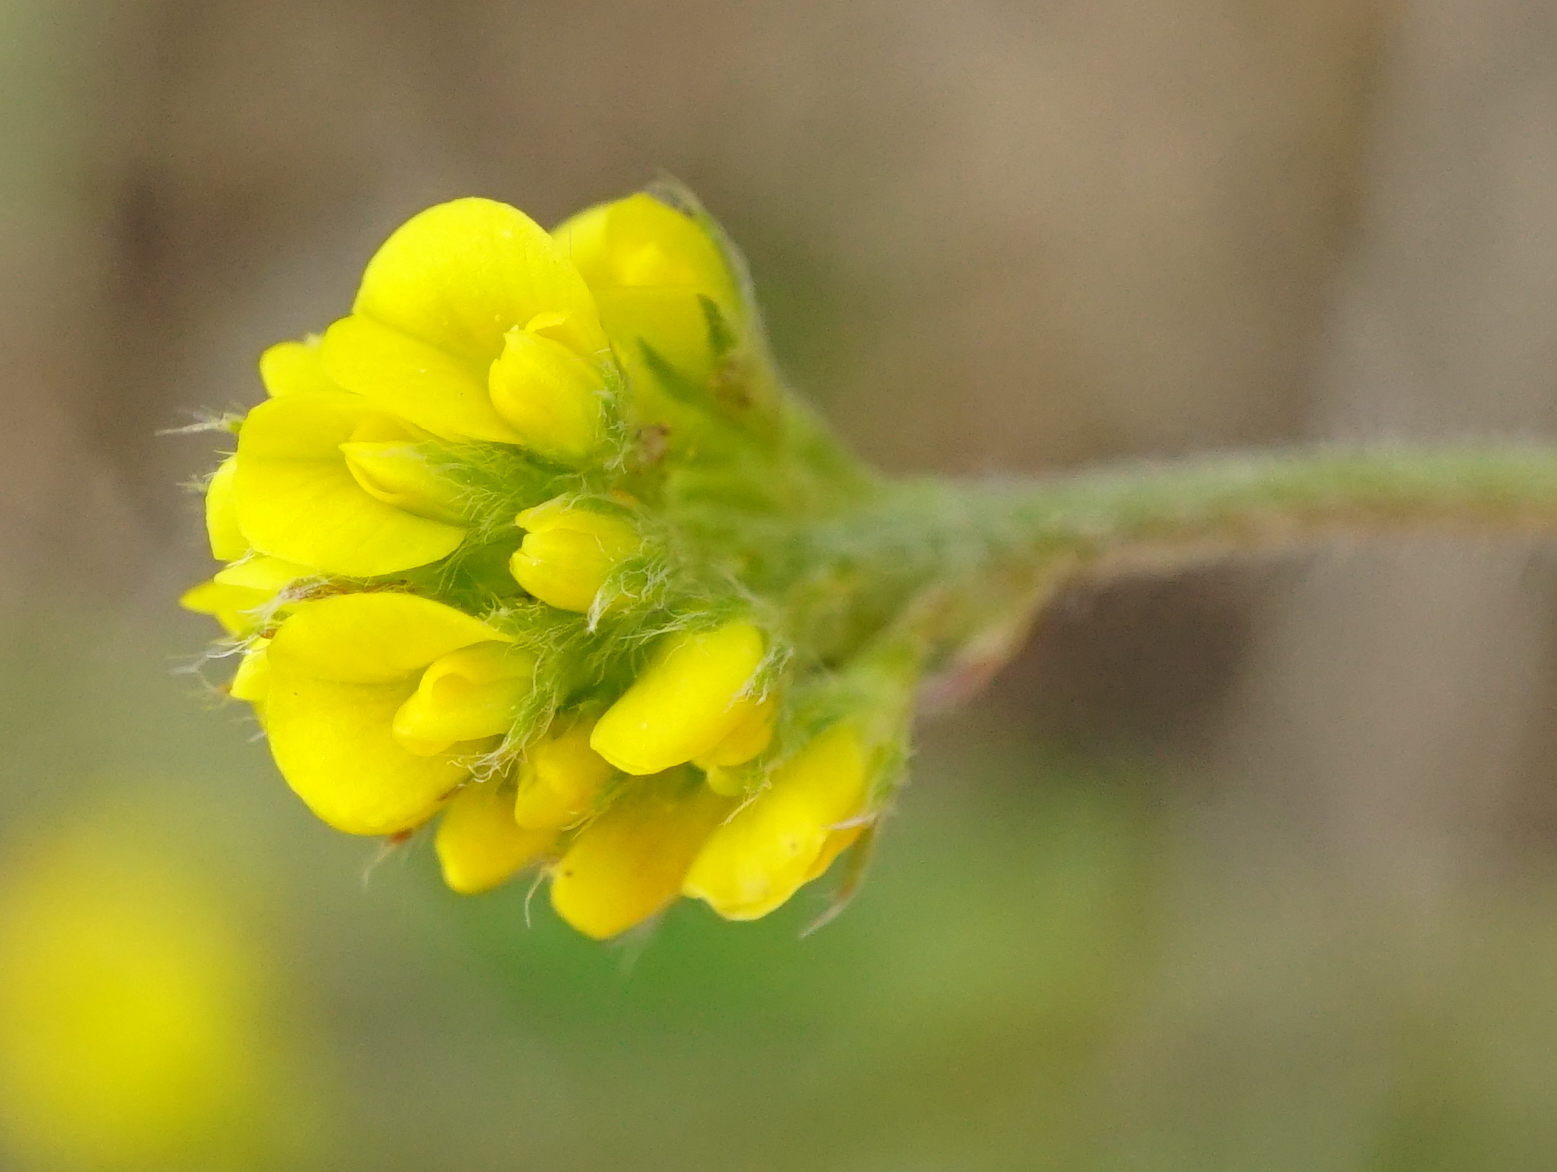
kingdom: Plantae
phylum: Tracheophyta
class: Magnoliopsida
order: Fabales
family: Fabaceae
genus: Medicago
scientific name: Medicago lupulina
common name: Black medick
